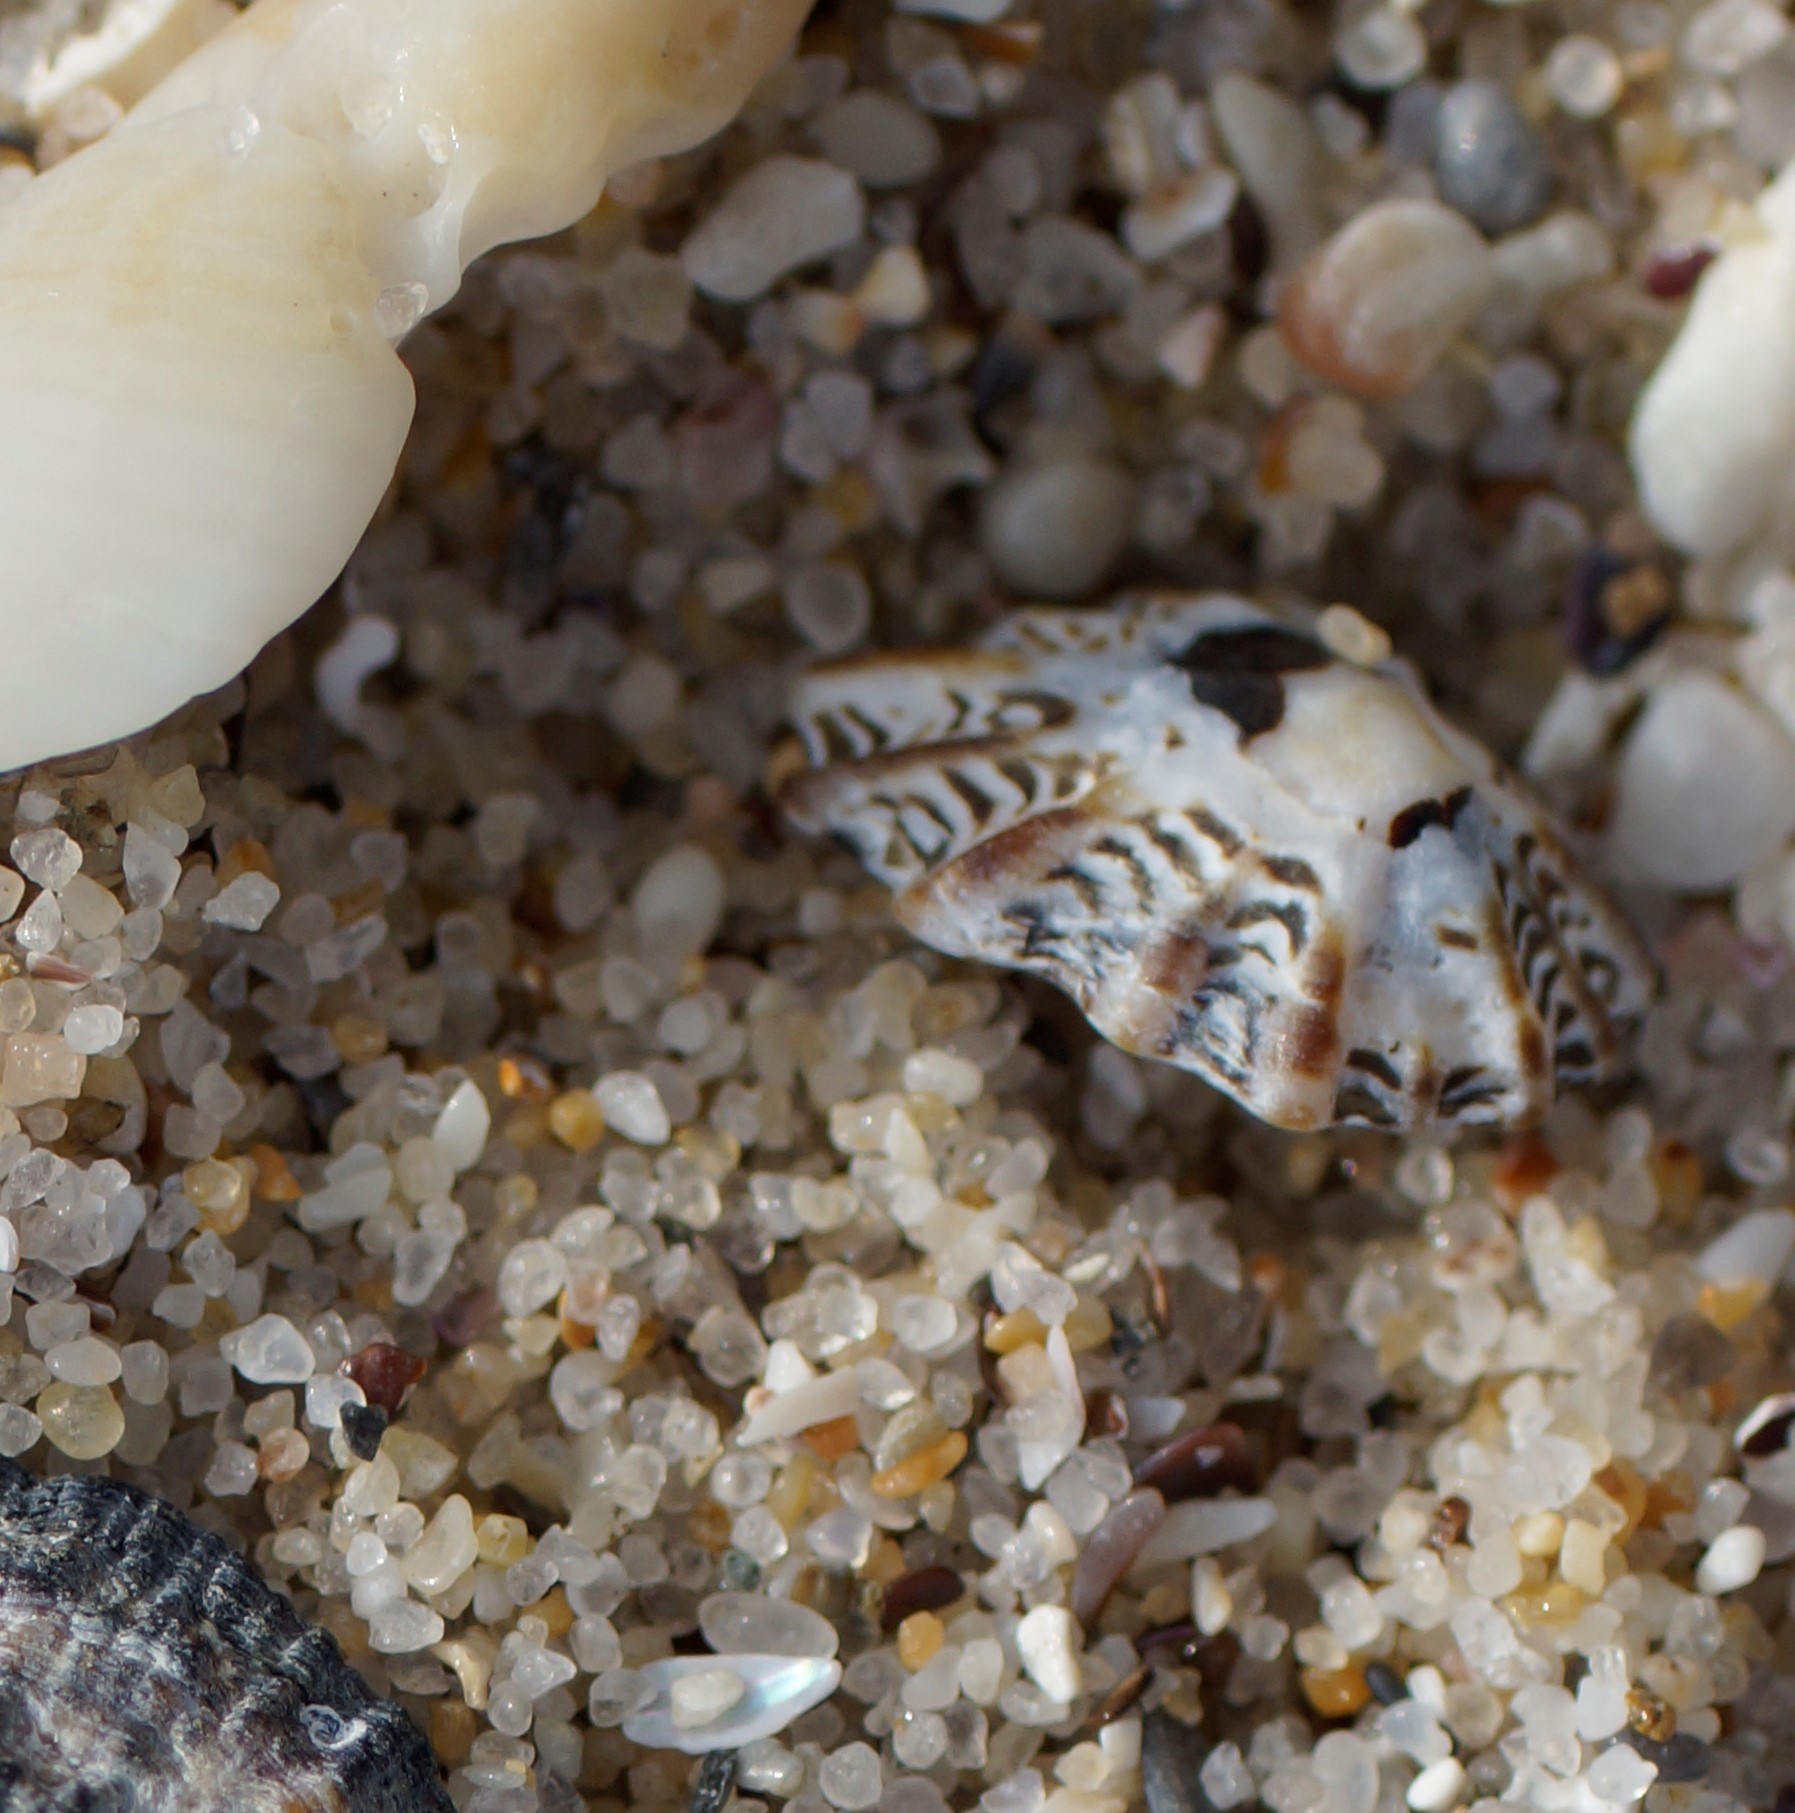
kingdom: Animalia
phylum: Mollusca
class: Gastropoda
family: Lottiidae
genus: Patelloida
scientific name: Patelloida alticostata
